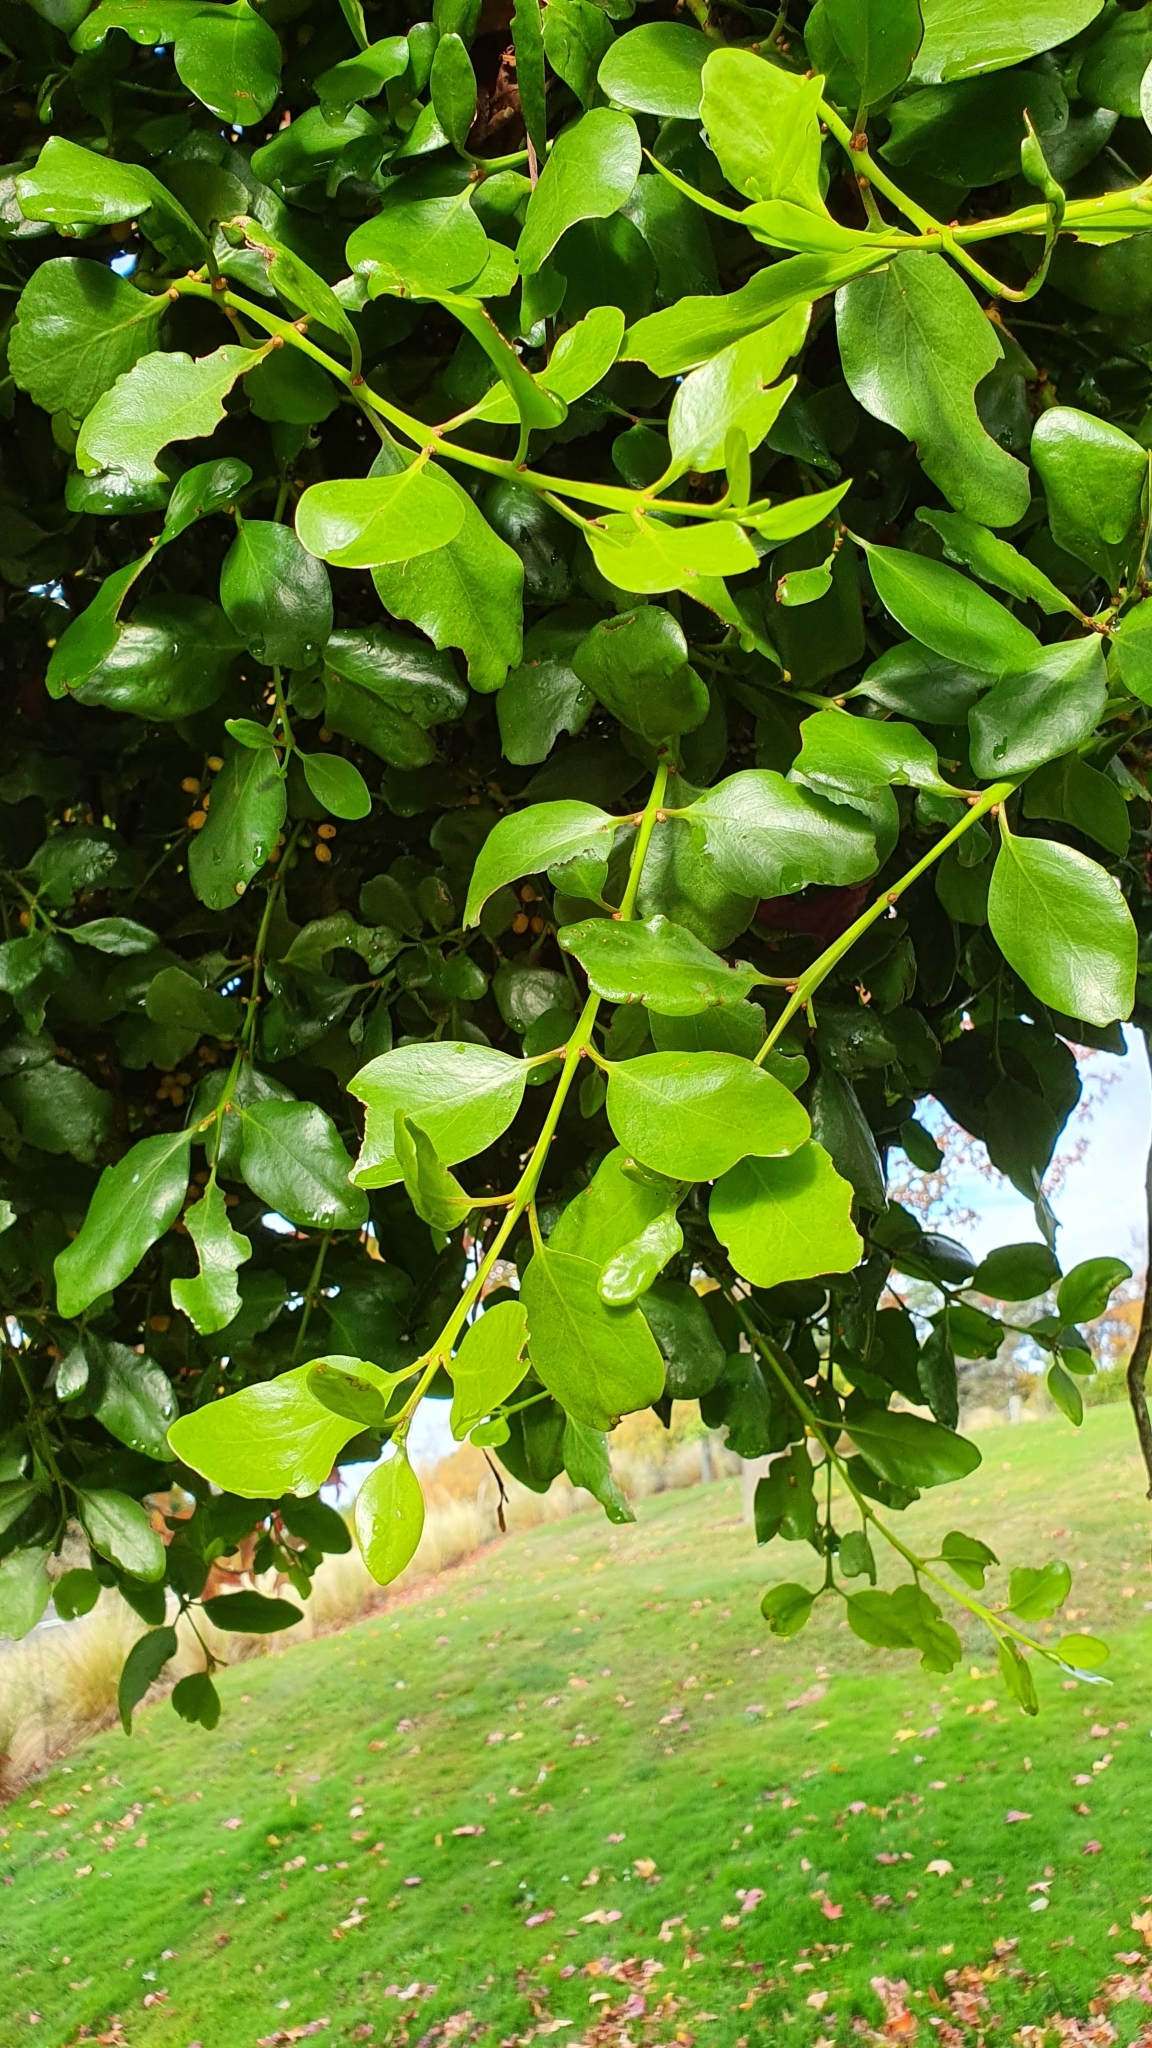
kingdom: Plantae
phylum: Tracheophyta
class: Magnoliopsida
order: Santalales
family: Loranthaceae
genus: Ileostylus
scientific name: Ileostylus micranthus
